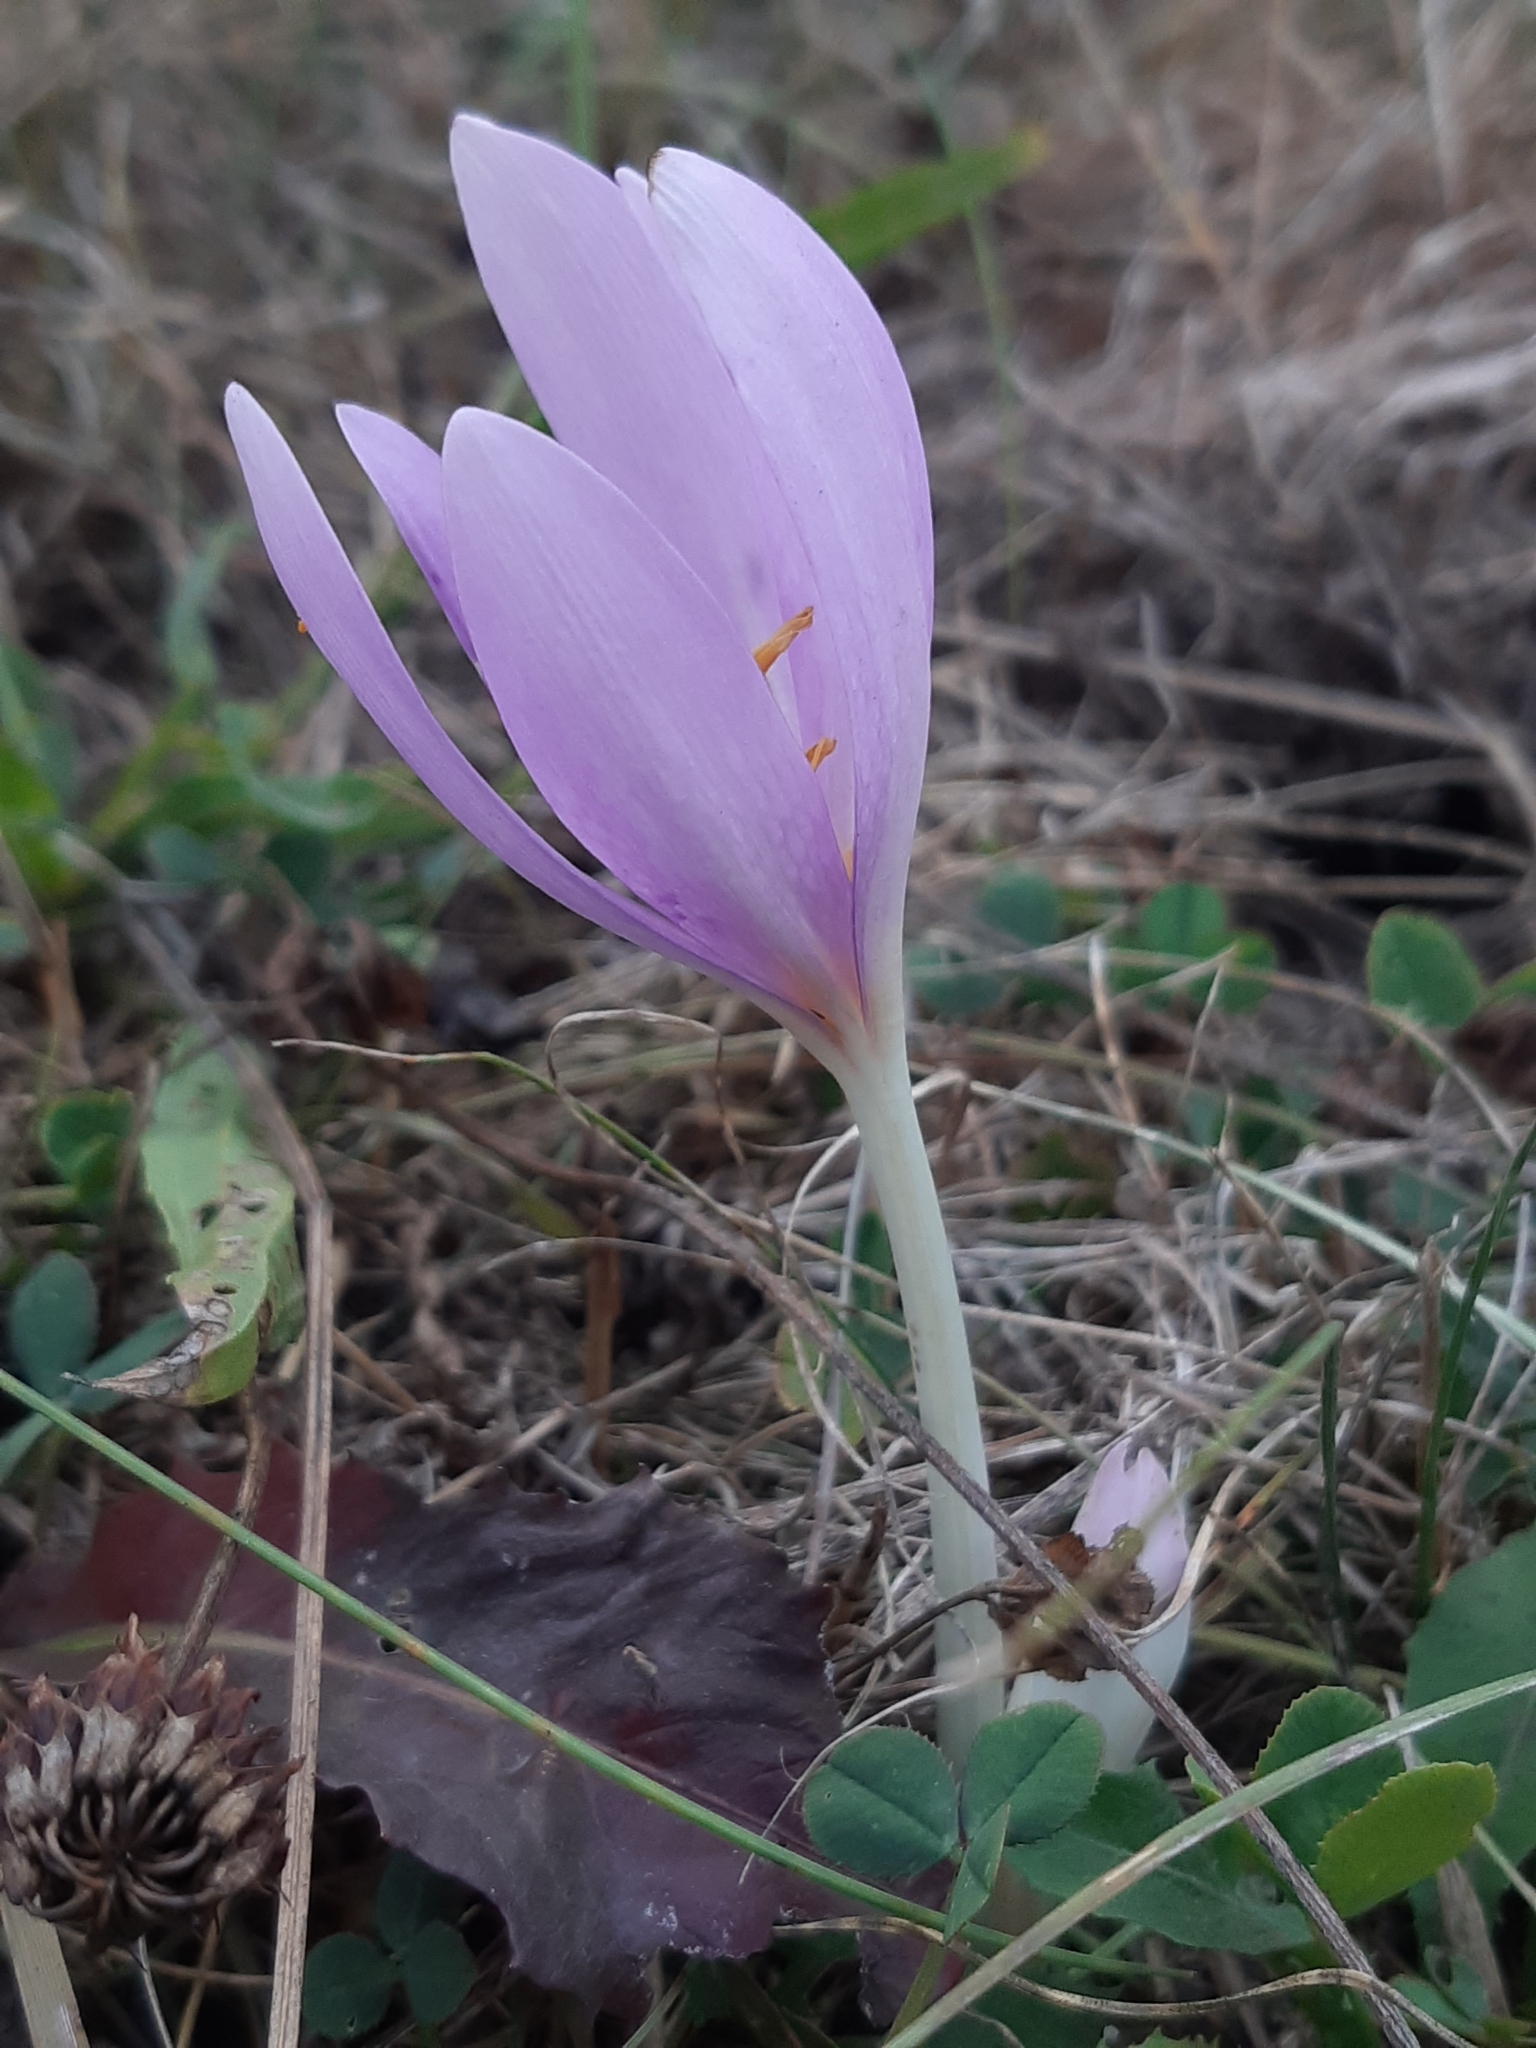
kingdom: Plantae
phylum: Tracheophyta
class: Liliopsida
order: Liliales
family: Colchicaceae
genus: Colchicum
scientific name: Colchicum autumnale
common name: Autumn crocus
